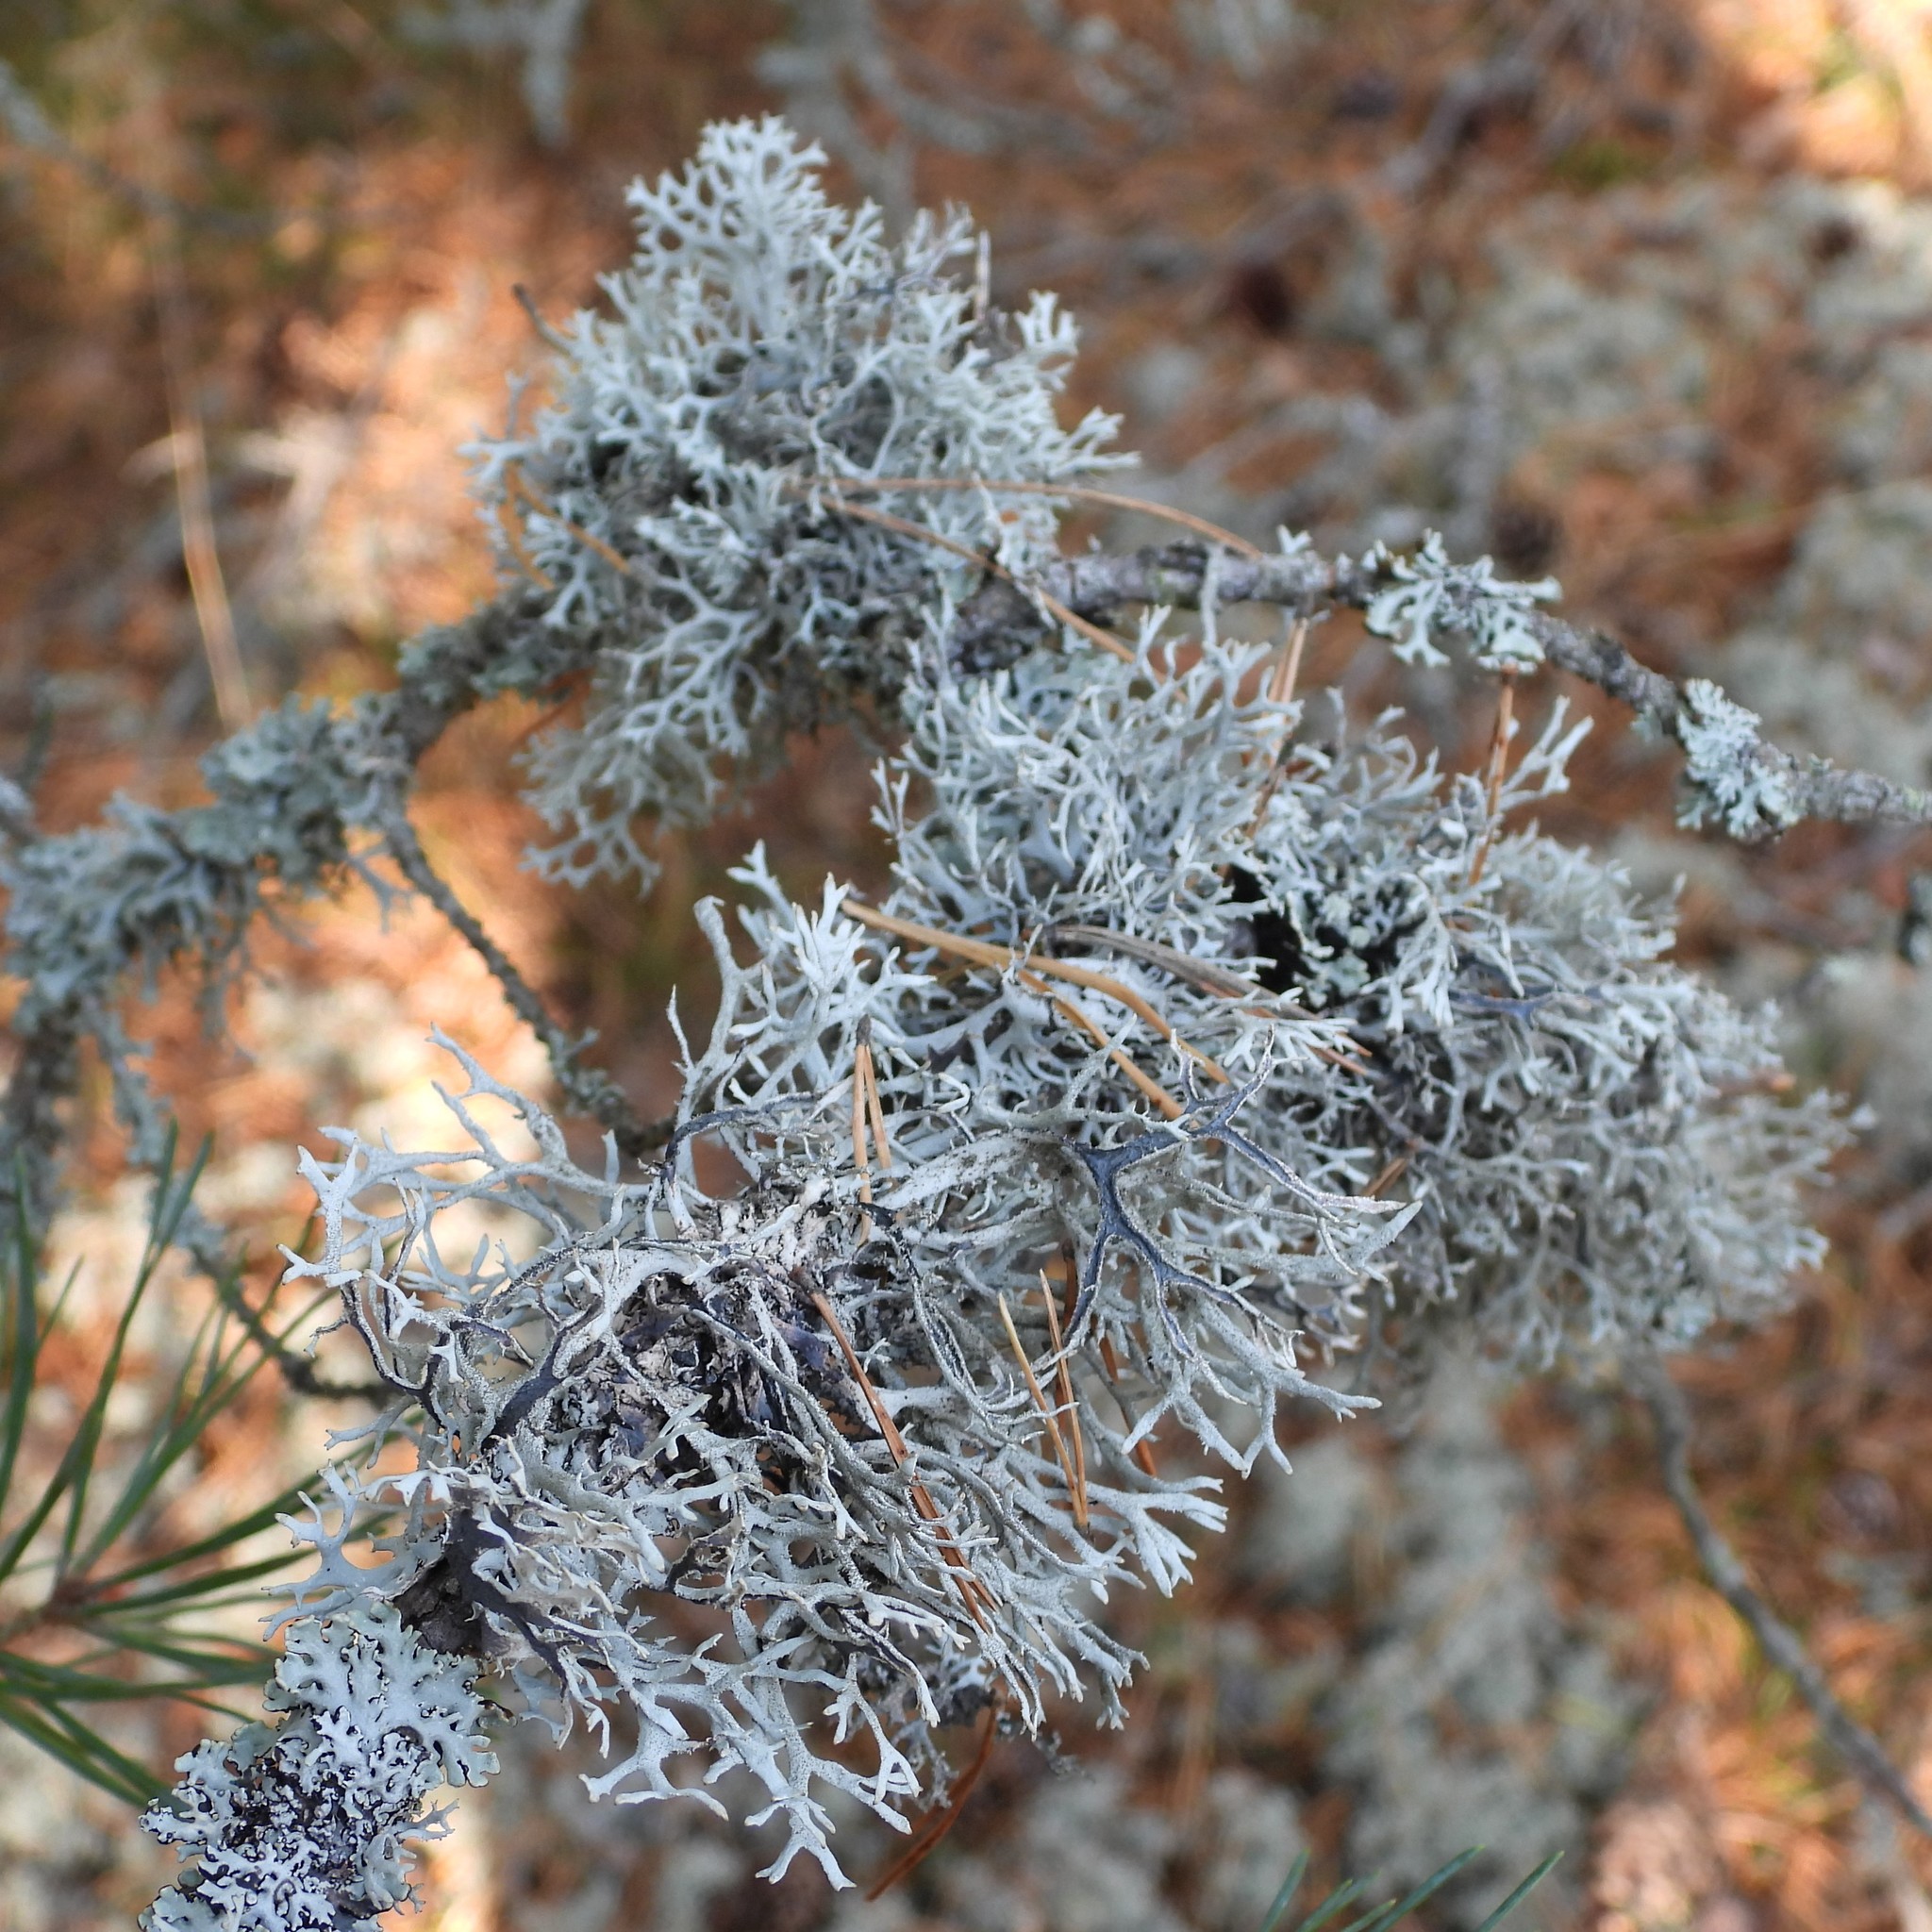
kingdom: Fungi
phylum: Ascomycota
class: Lecanoromycetes
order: Lecanorales
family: Parmeliaceae
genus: Pseudevernia
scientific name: Pseudevernia furfuracea
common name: Tree moss
